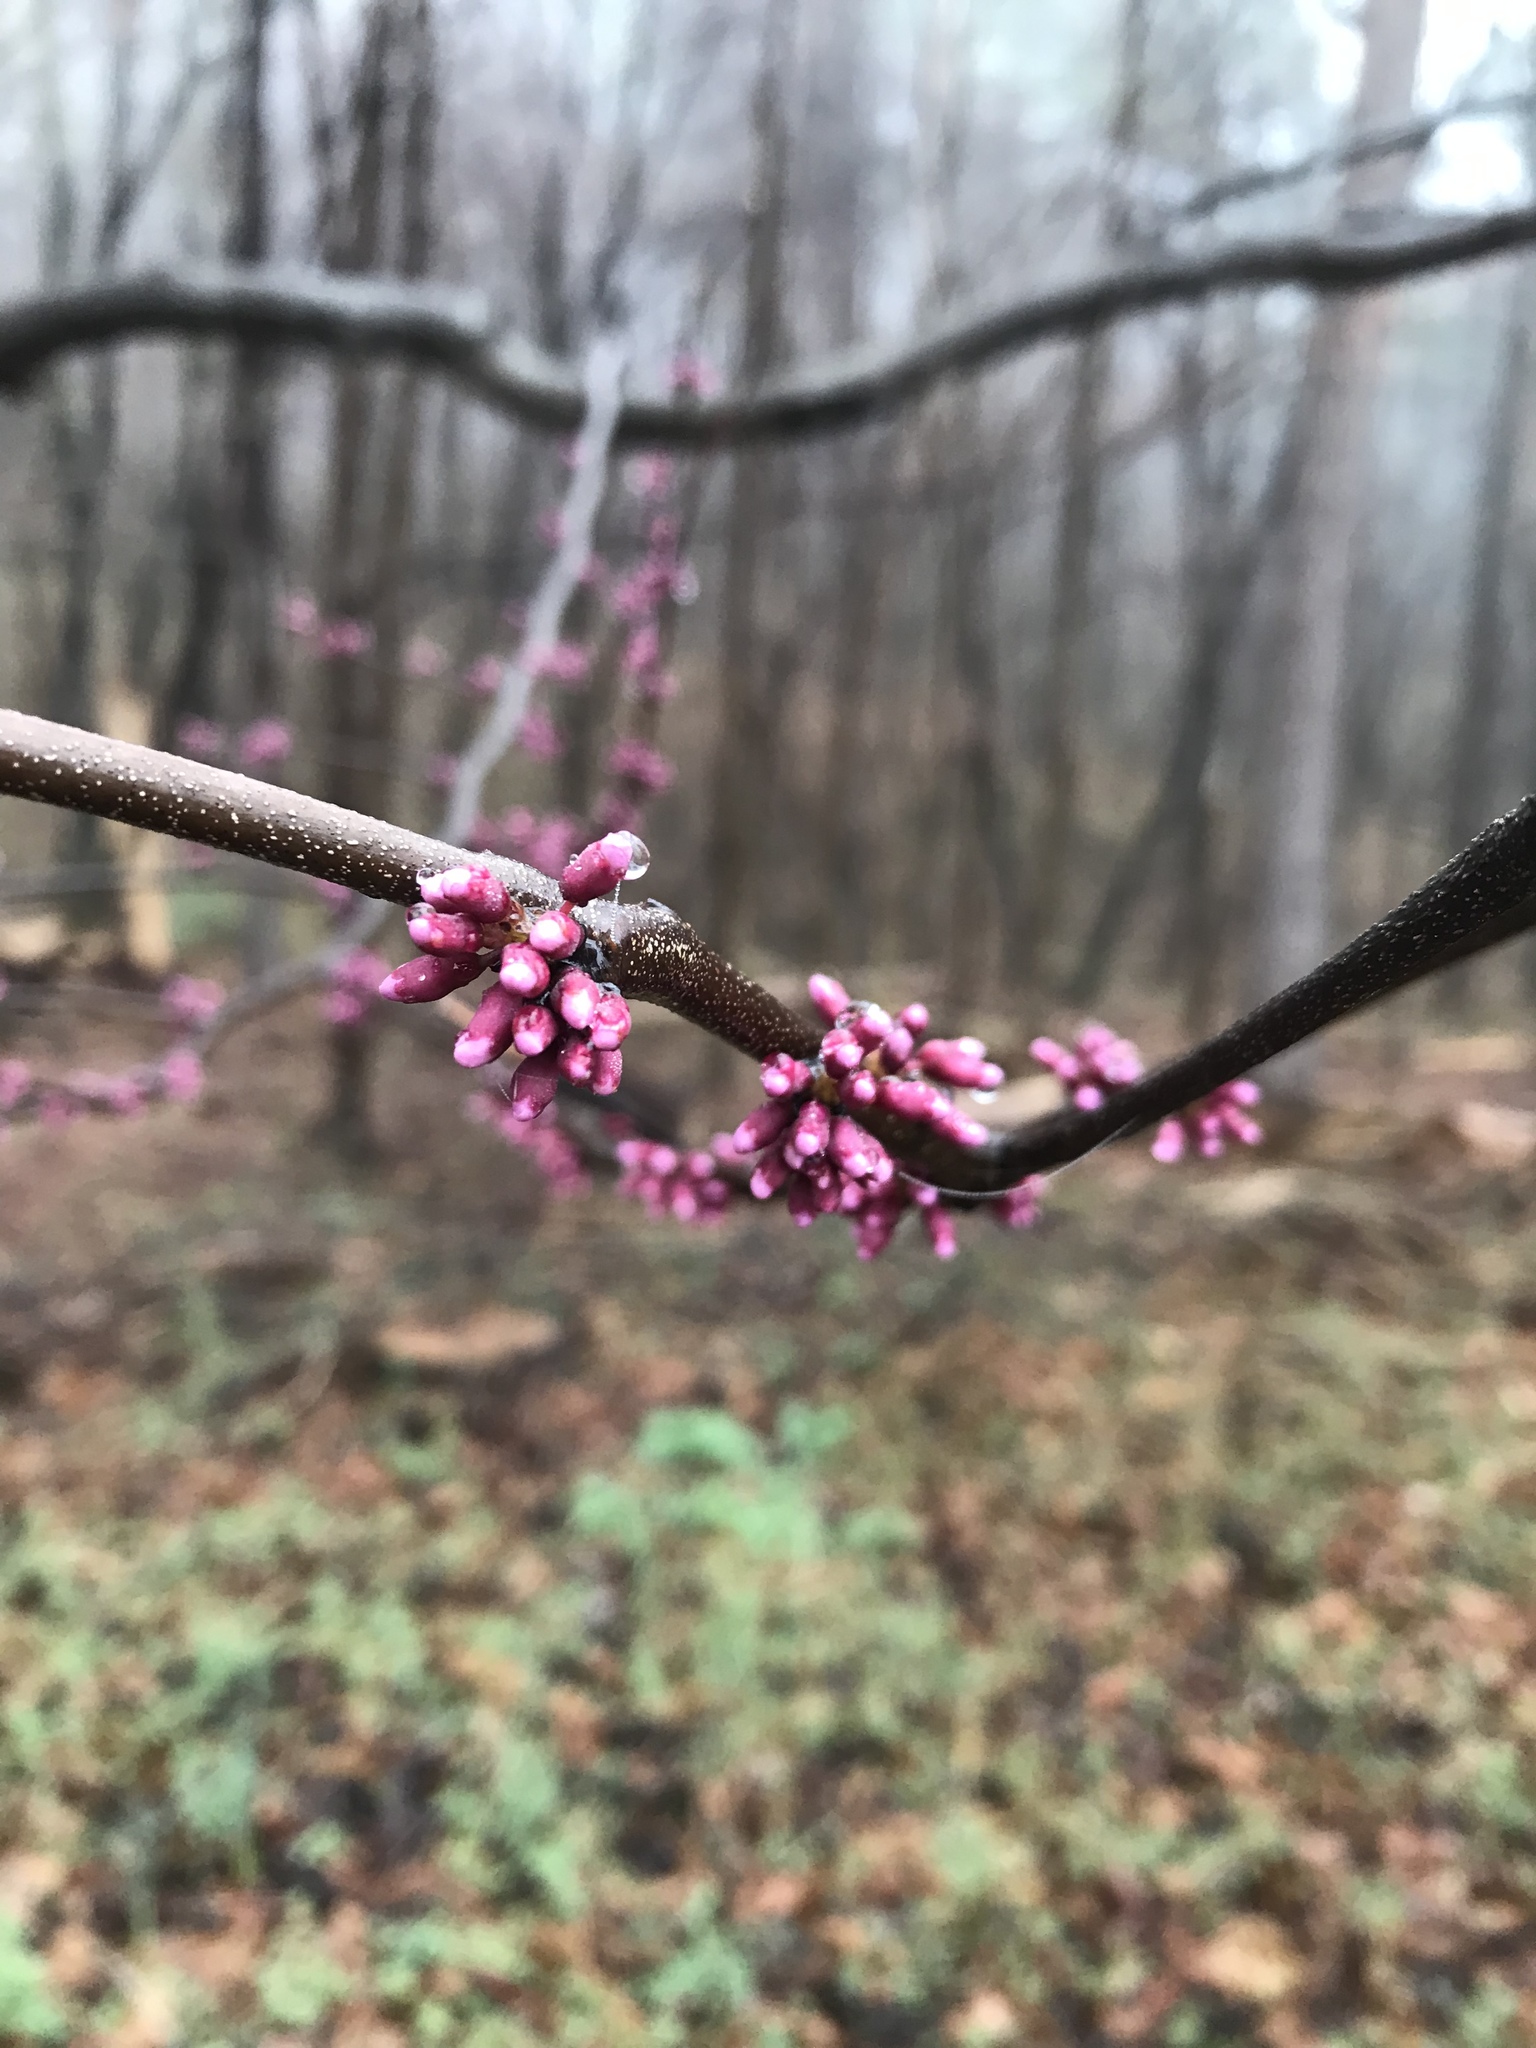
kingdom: Plantae
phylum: Tracheophyta
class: Magnoliopsida
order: Fabales
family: Fabaceae
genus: Cercis
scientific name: Cercis canadensis
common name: Eastern redbud
